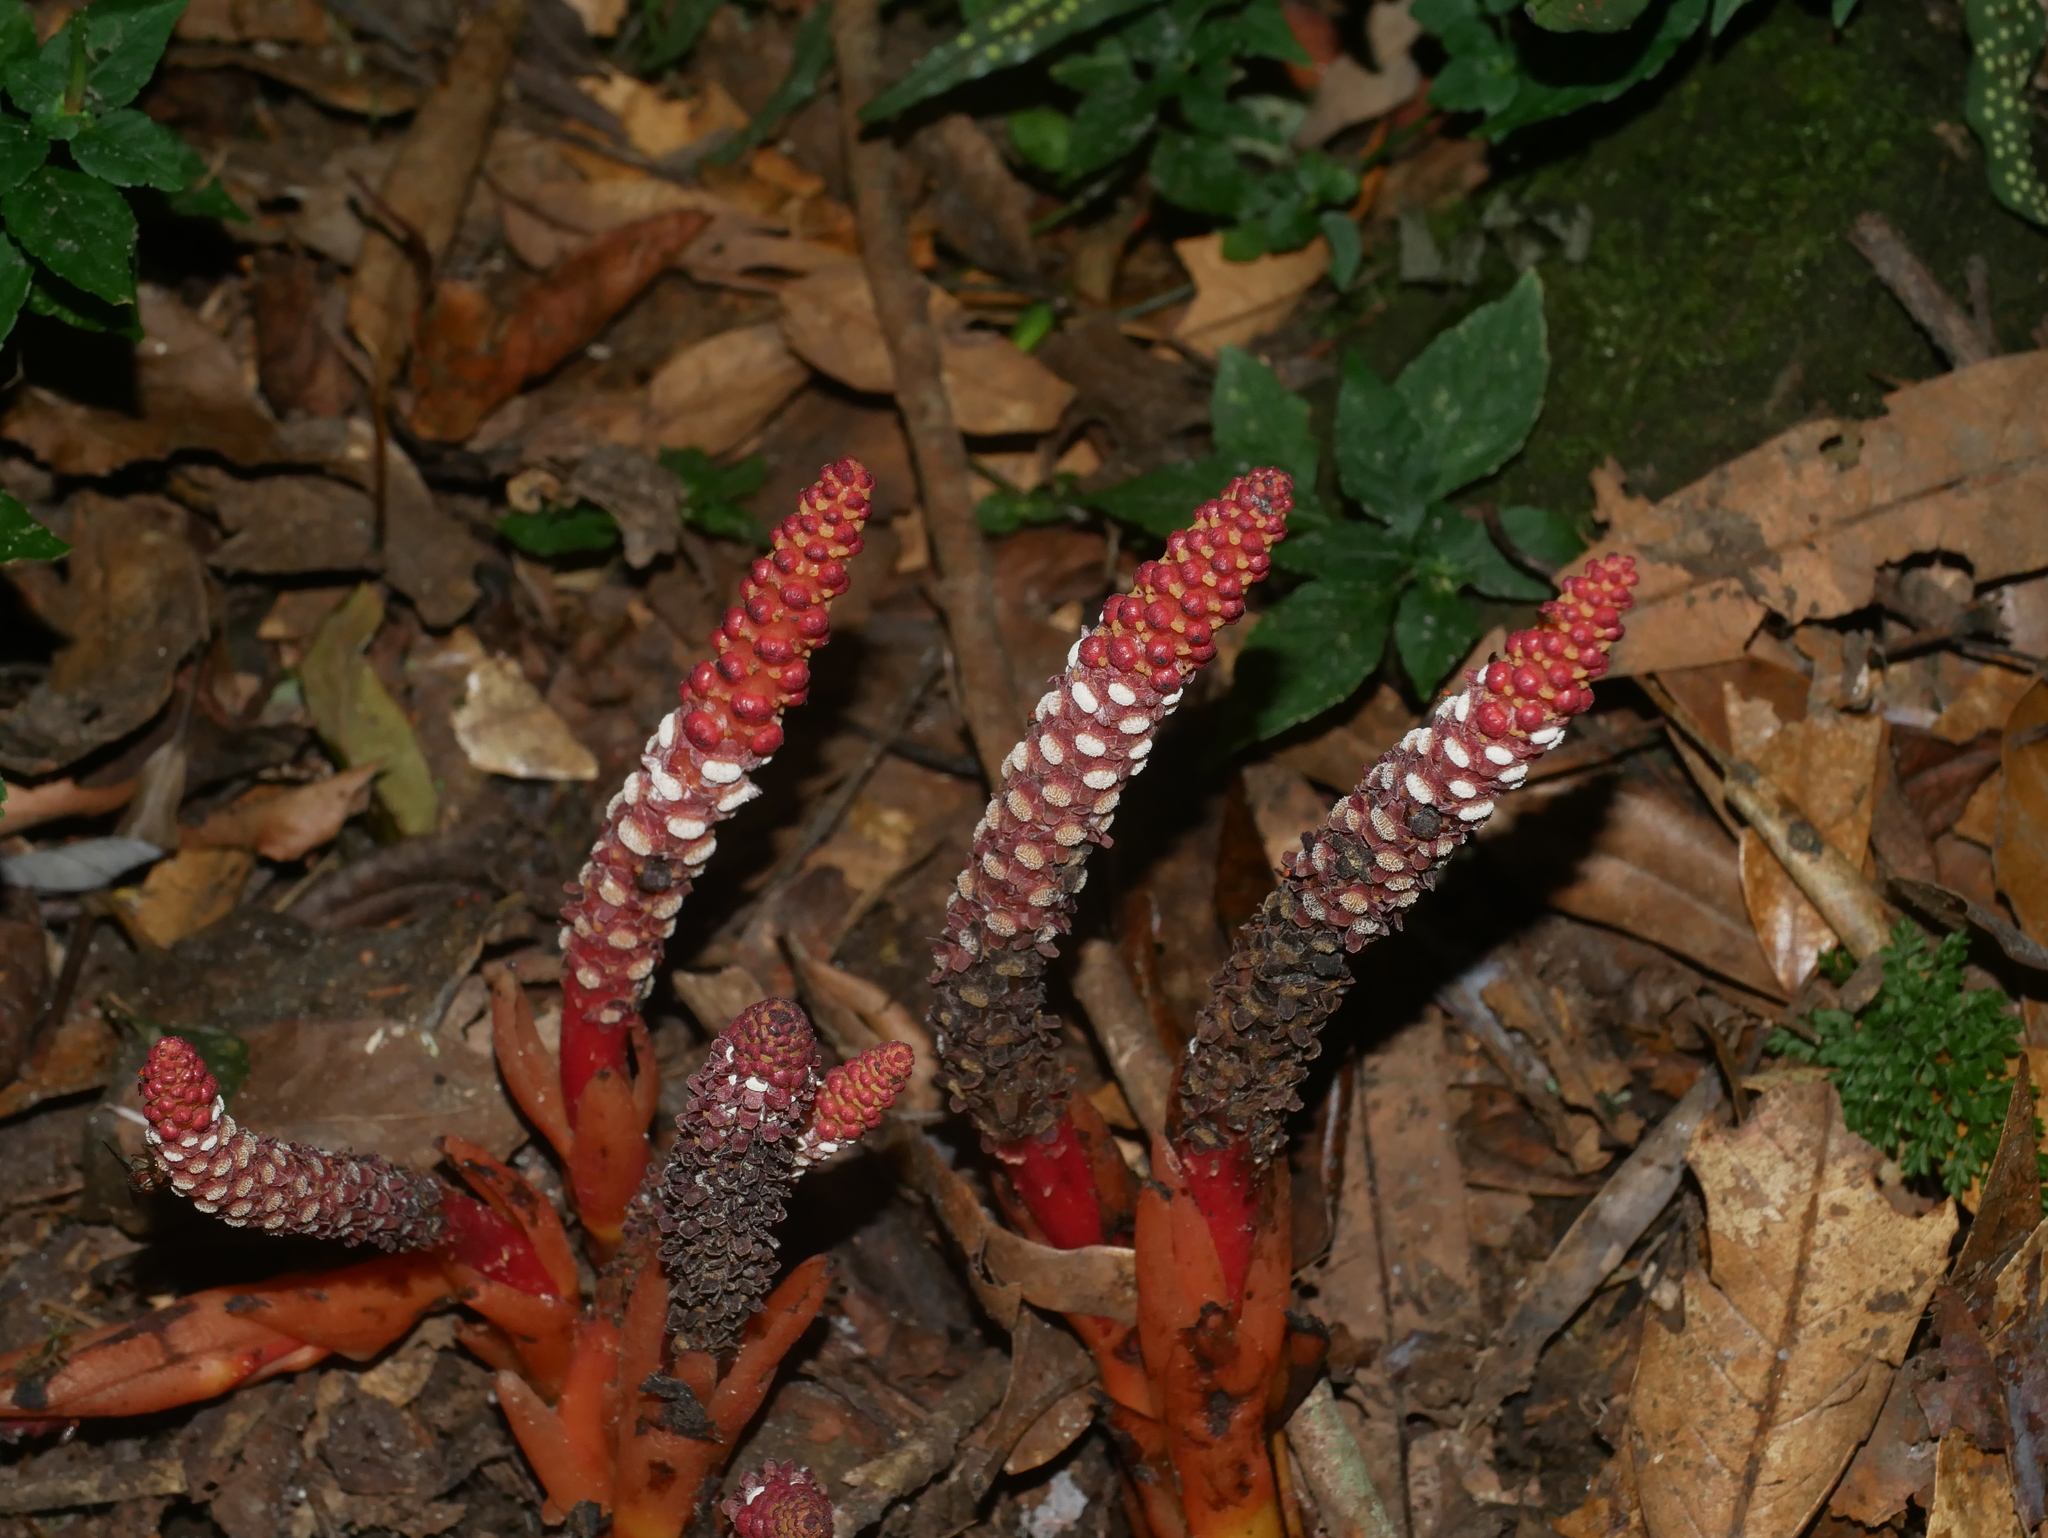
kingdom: Plantae
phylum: Tracheophyta
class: Magnoliopsida
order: Santalales
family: Balanophoraceae
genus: Balanophora
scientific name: Balanophora laxiflora
